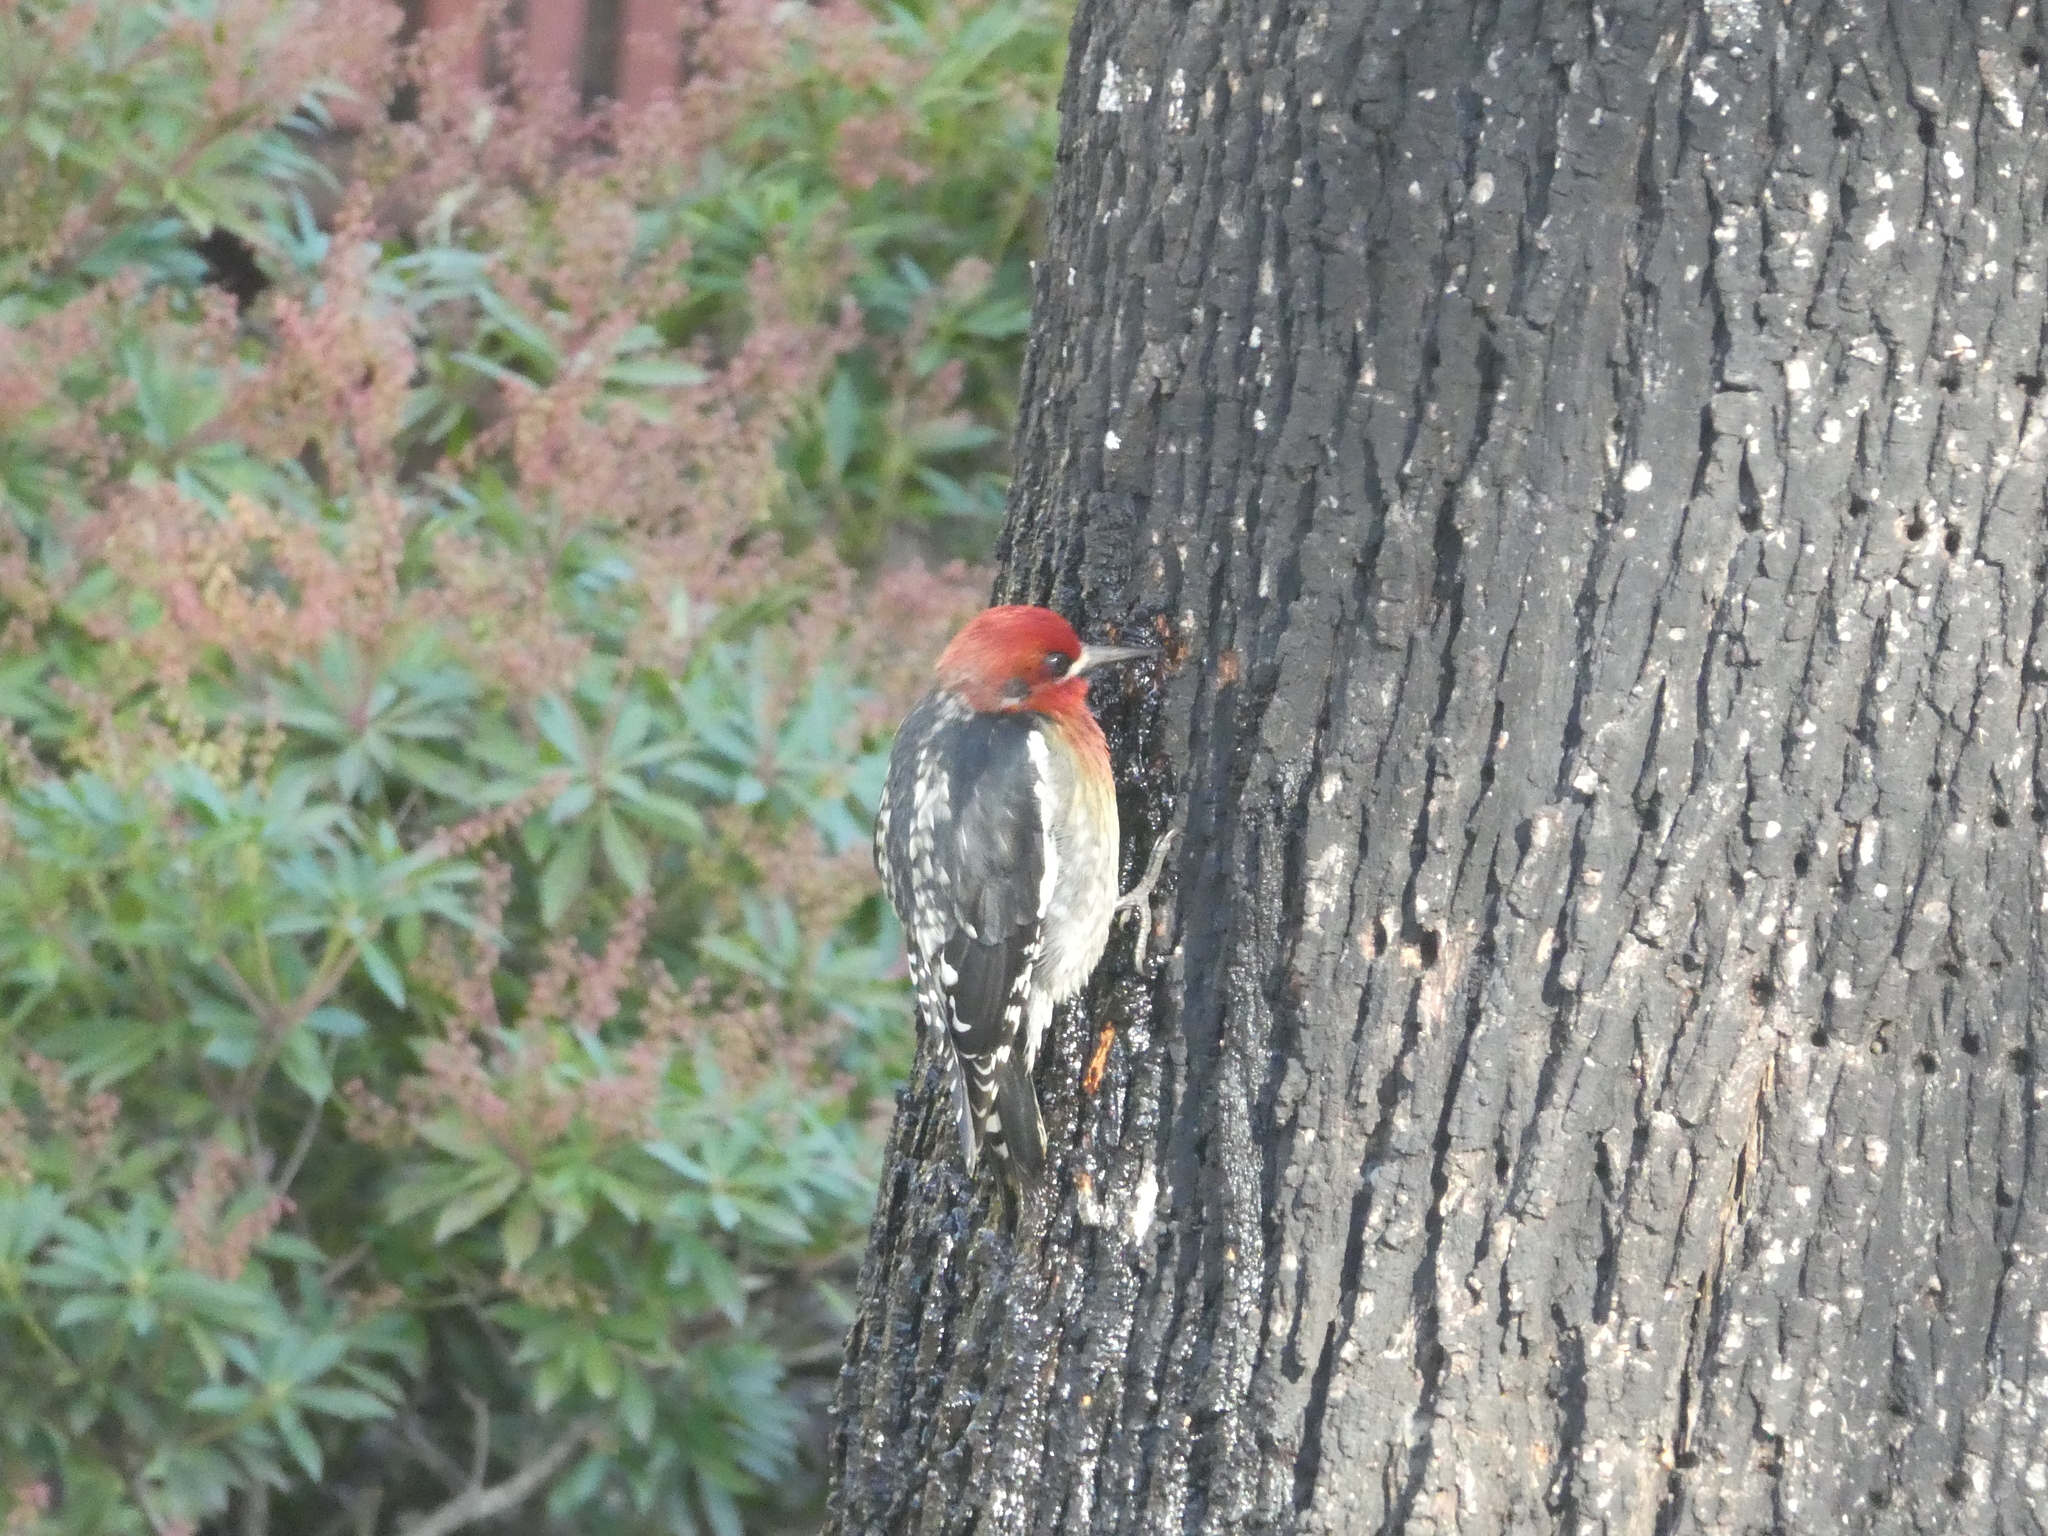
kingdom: Animalia
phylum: Chordata
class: Aves
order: Piciformes
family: Picidae
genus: Sphyrapicus
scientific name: Sphyrapicus ruber
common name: Red-breasted sapsucker
